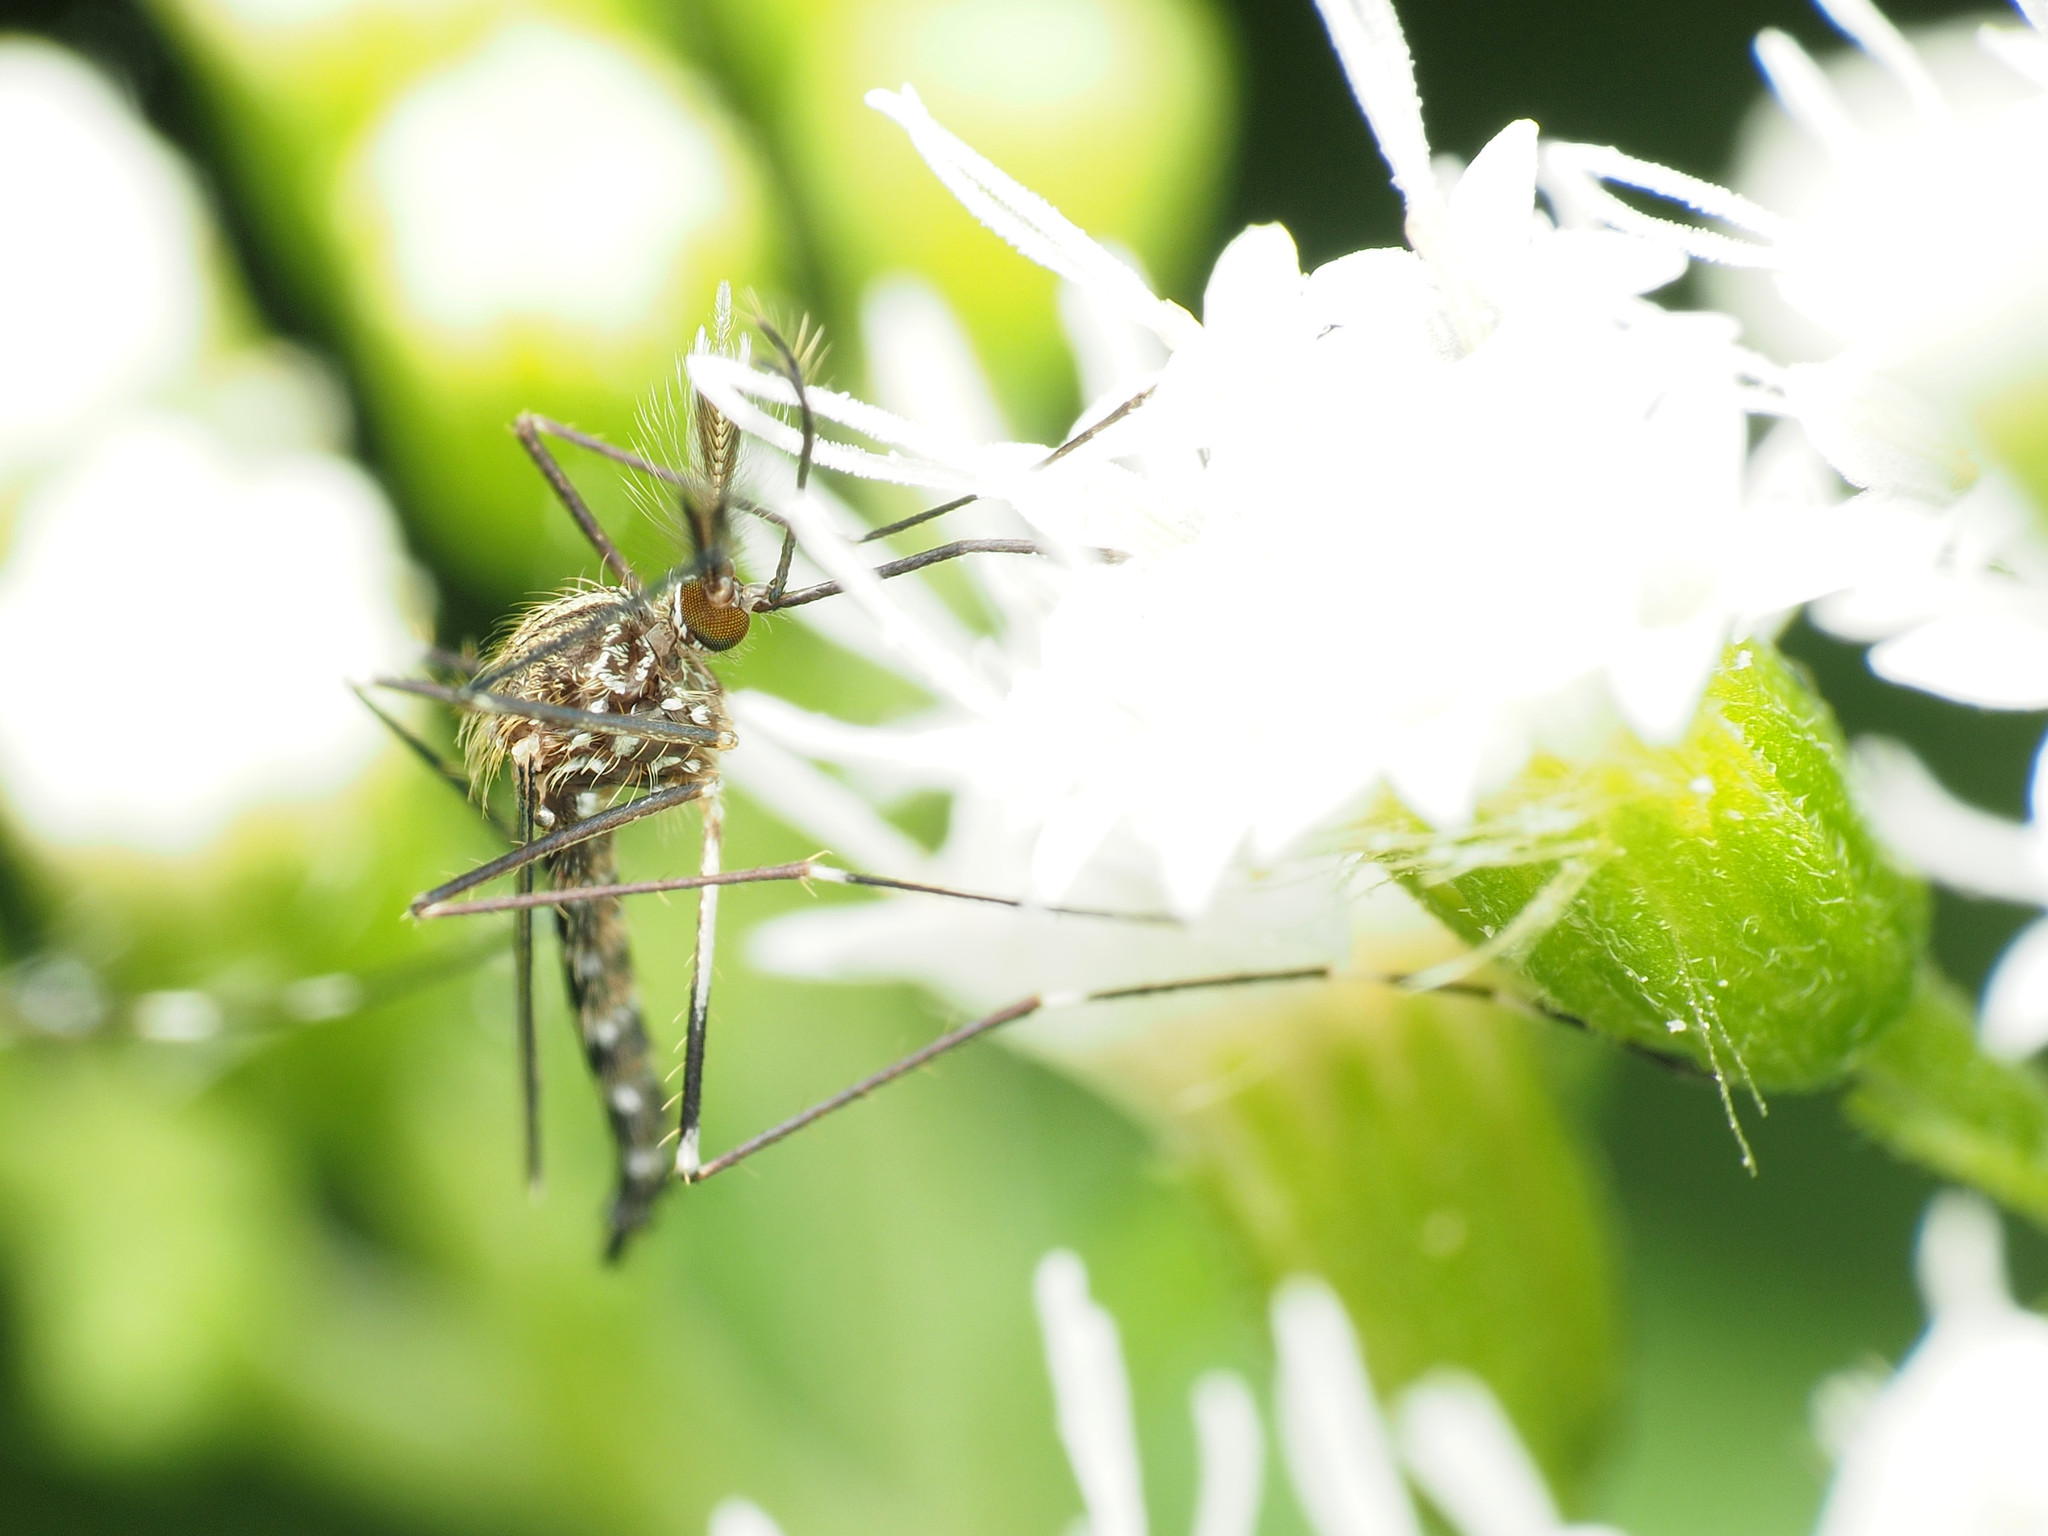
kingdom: Animalia
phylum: Arthropoda
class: Insecta
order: Diptera
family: Culicidae
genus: Aedes
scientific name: Aedes japonicus
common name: Asian bush mosquito
